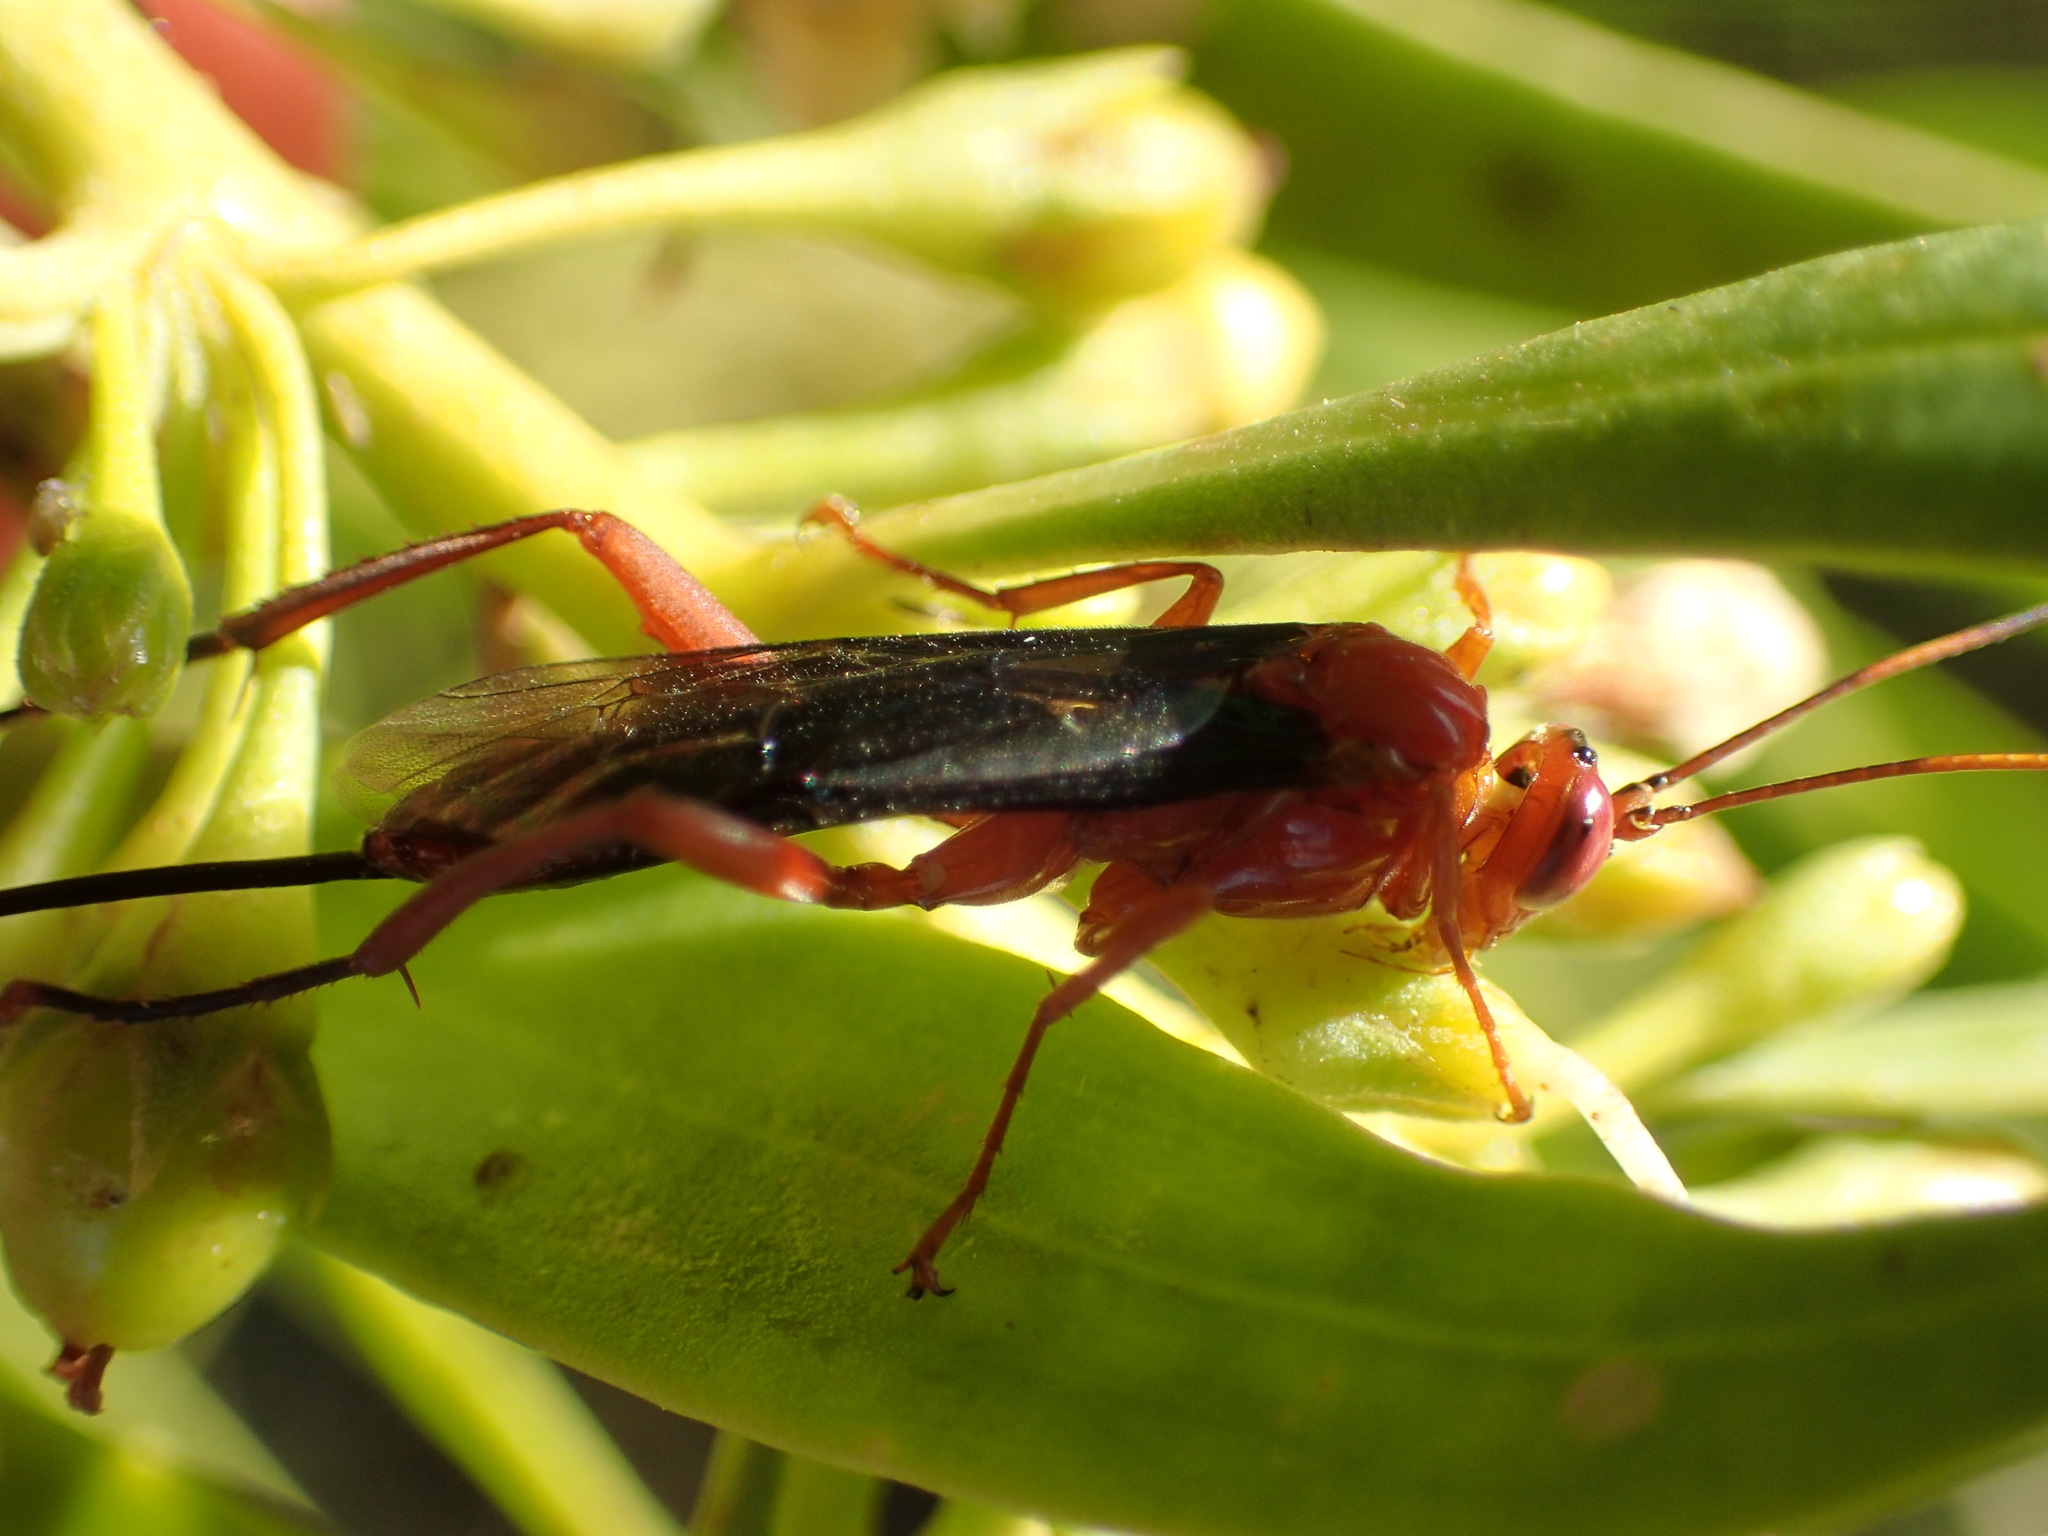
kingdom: Animalia
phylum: Arthropoda
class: Insecta
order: Hymenoptera
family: Ichneumonidae
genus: Lissopimpla
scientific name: Lissopimpla excelsa
